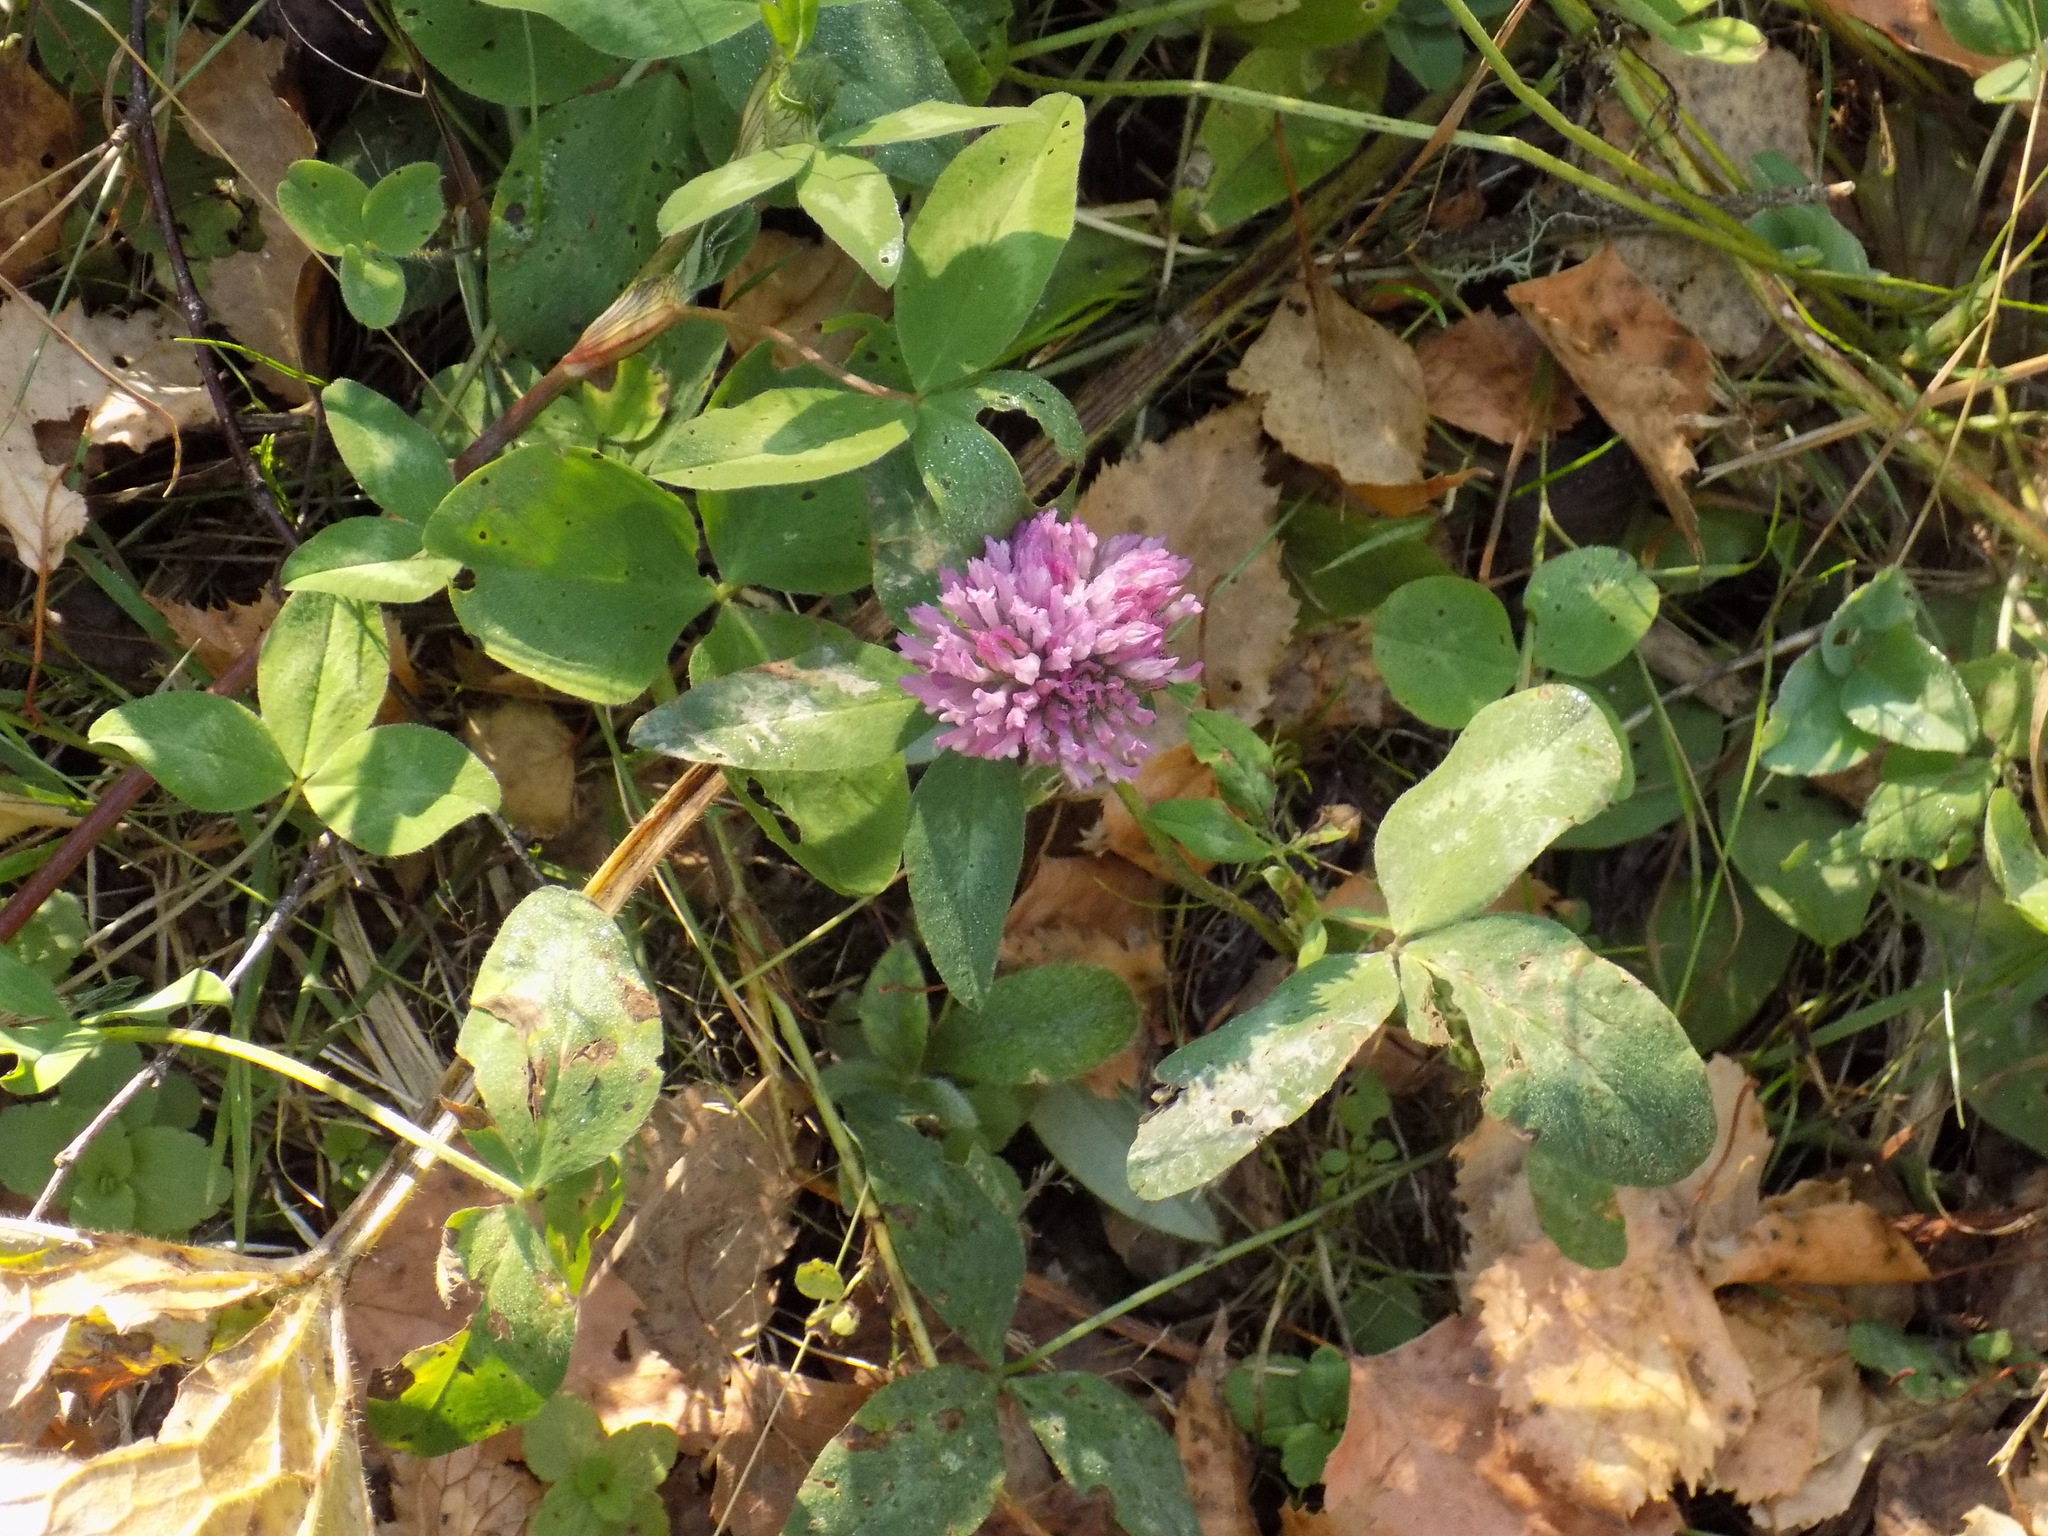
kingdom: Plantae
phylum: Tracheophyta
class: Magnoliopsida
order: Fabales
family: Fabaceae
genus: Trifolium
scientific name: Trifolium pratense
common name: Red clover
